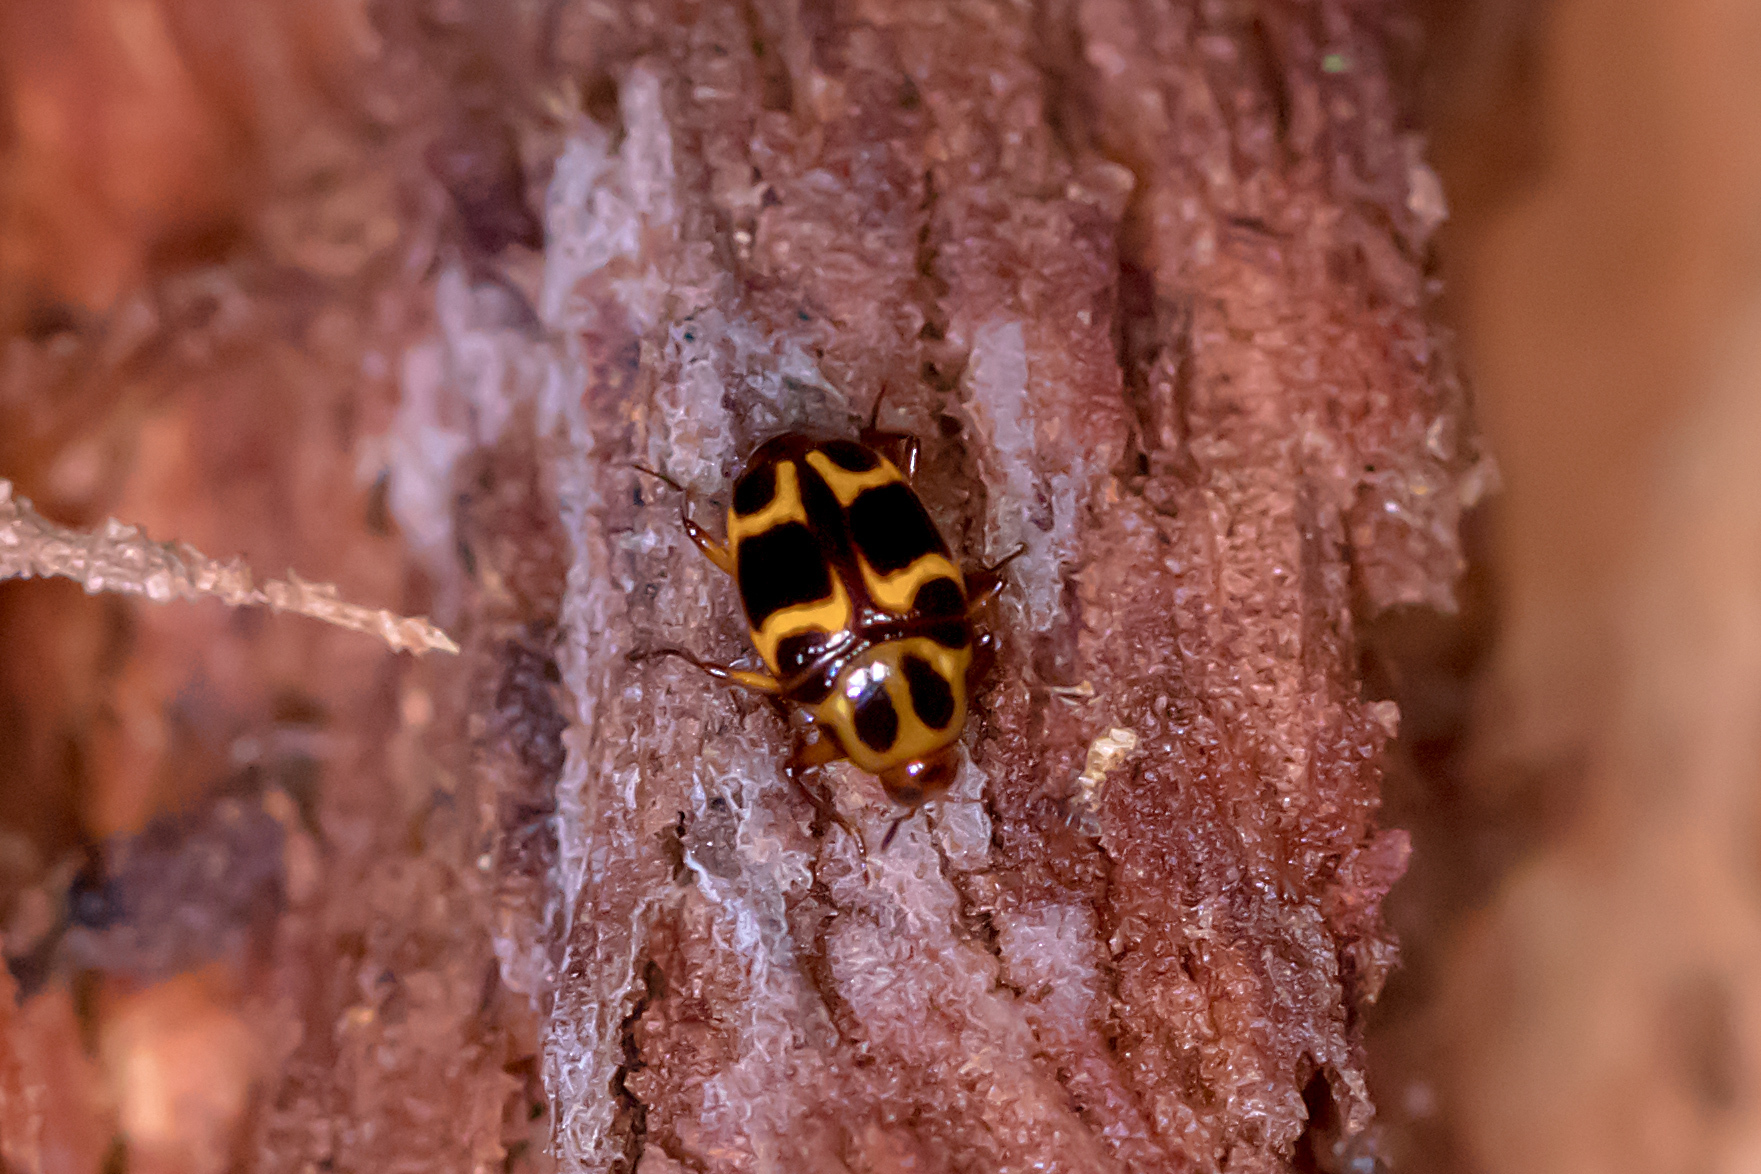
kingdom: Animalia
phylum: Arthropoda
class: Insecta
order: Coleoptera
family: Staphylinidae
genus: Scaphidium
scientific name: Scaphidium exornatum
